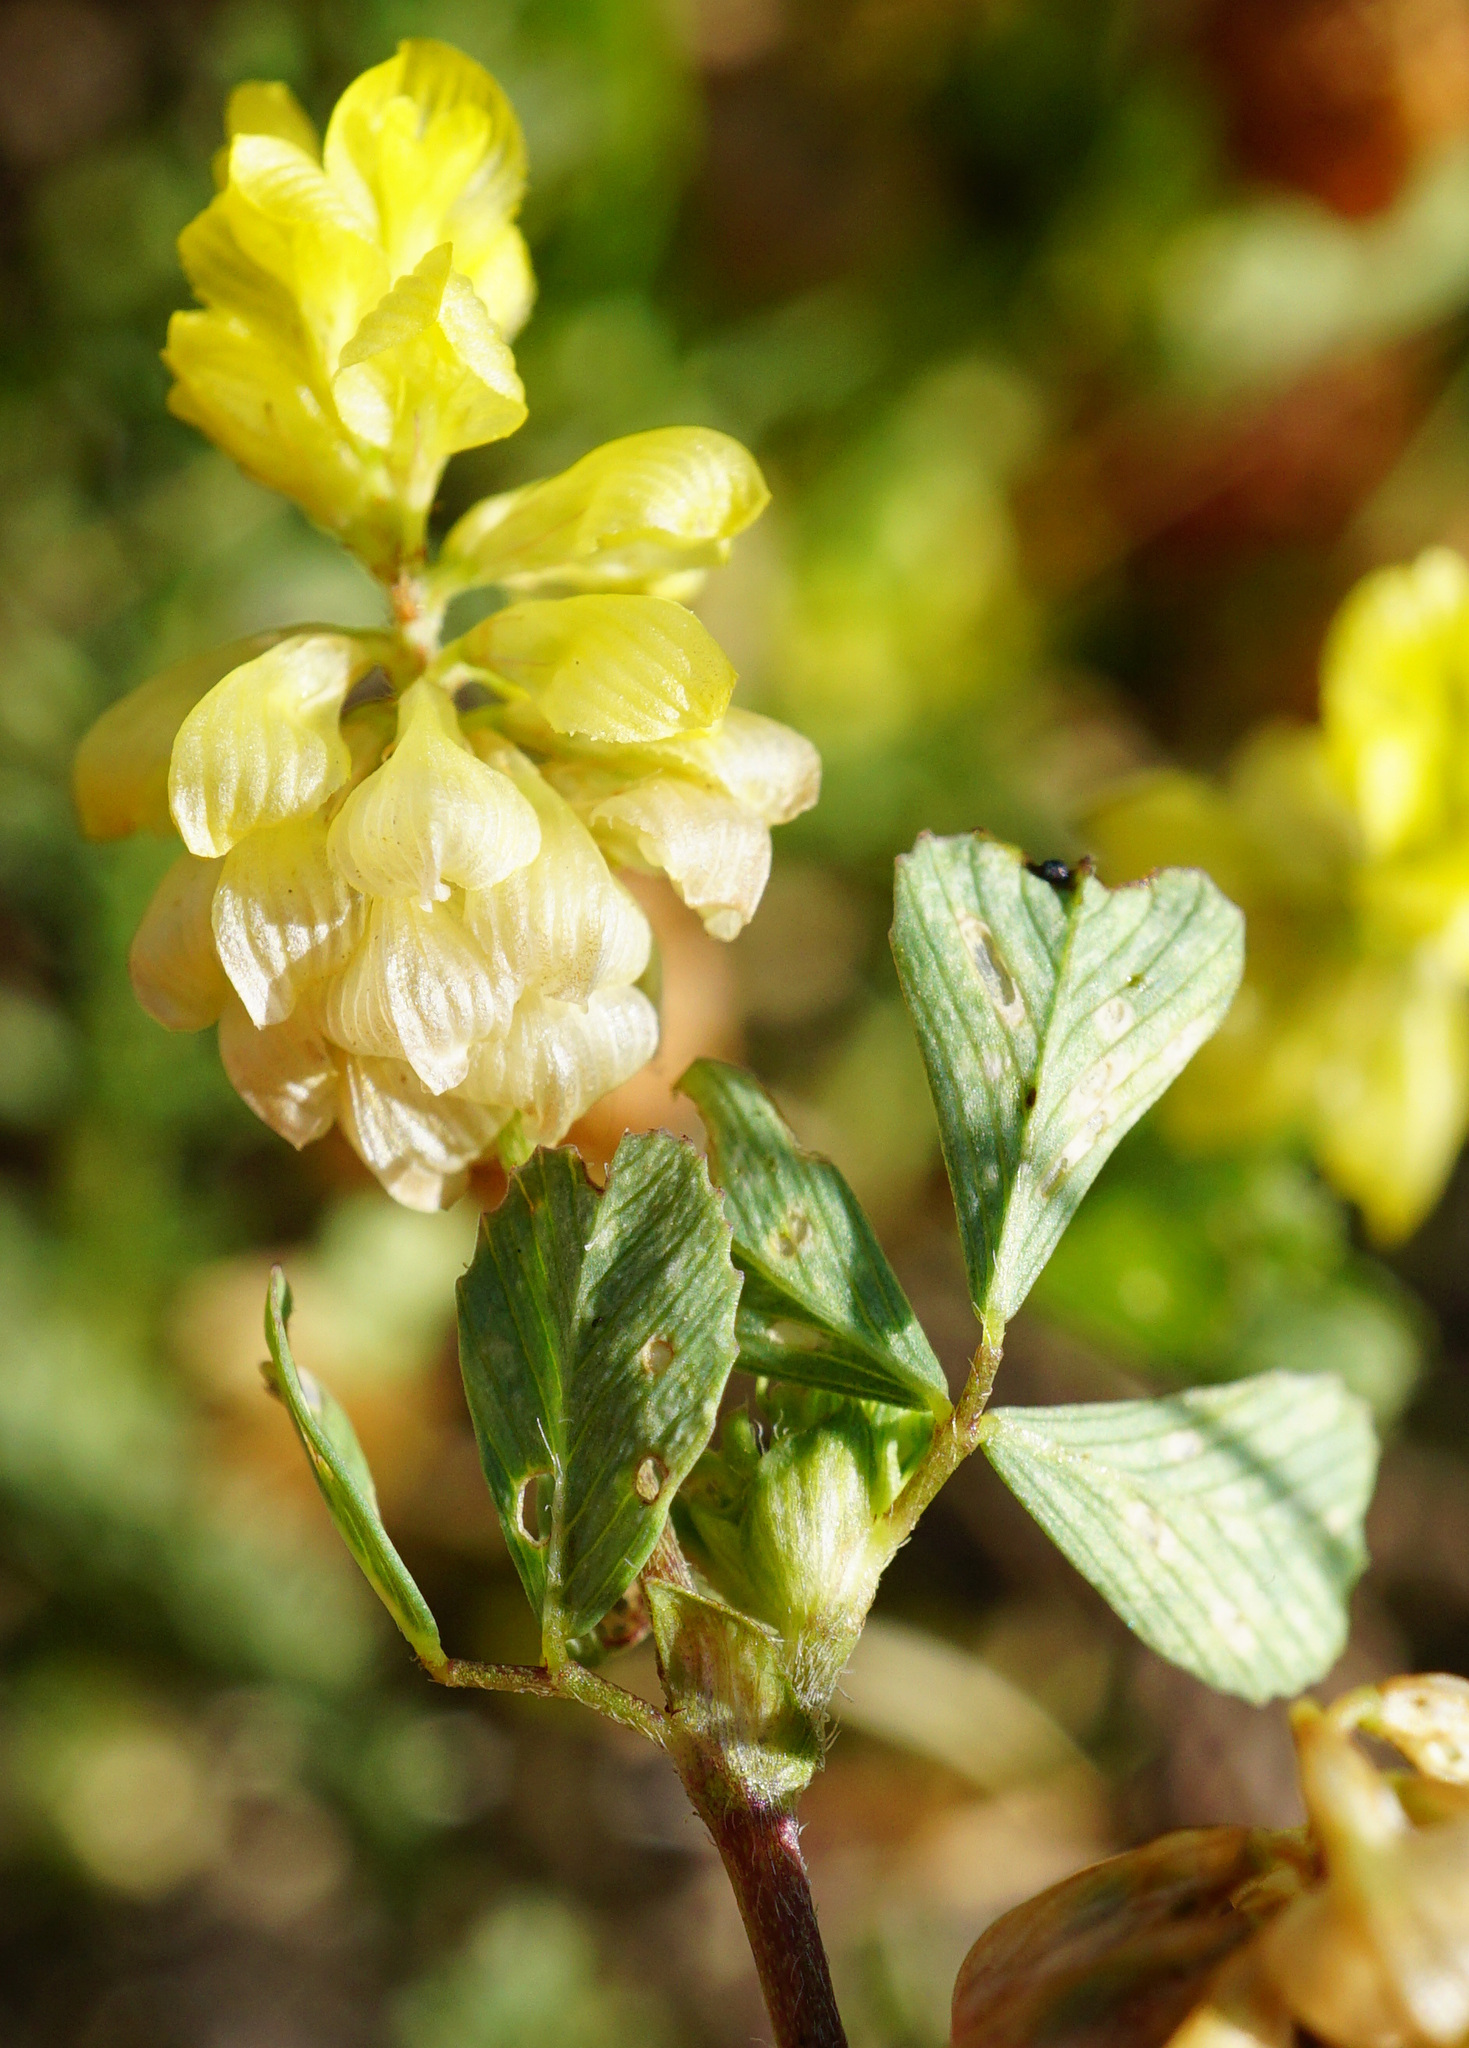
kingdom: Plantae
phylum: Tracheophyta
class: Magnoliopsida
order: Fabales
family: Fabaceae
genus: Trifolium
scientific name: Trifolium campestre
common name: Field clover
